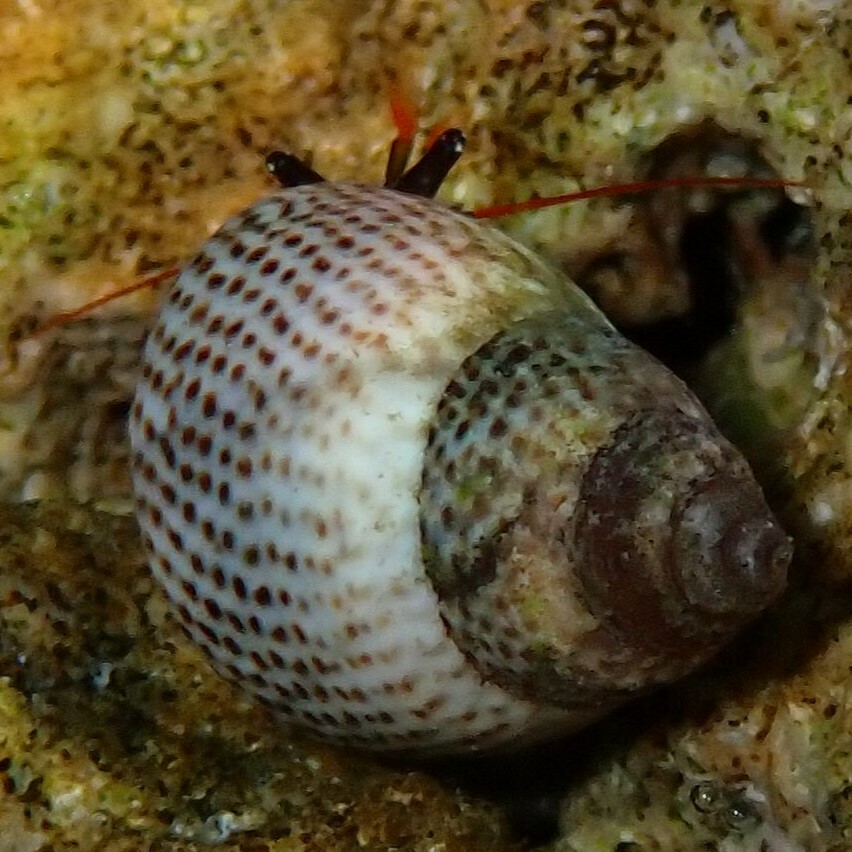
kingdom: Animalia
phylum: Mollusca
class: Gastropoda
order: Littorinimorpha
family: Littorinidae
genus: Littoraria
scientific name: Littoraria pintado
